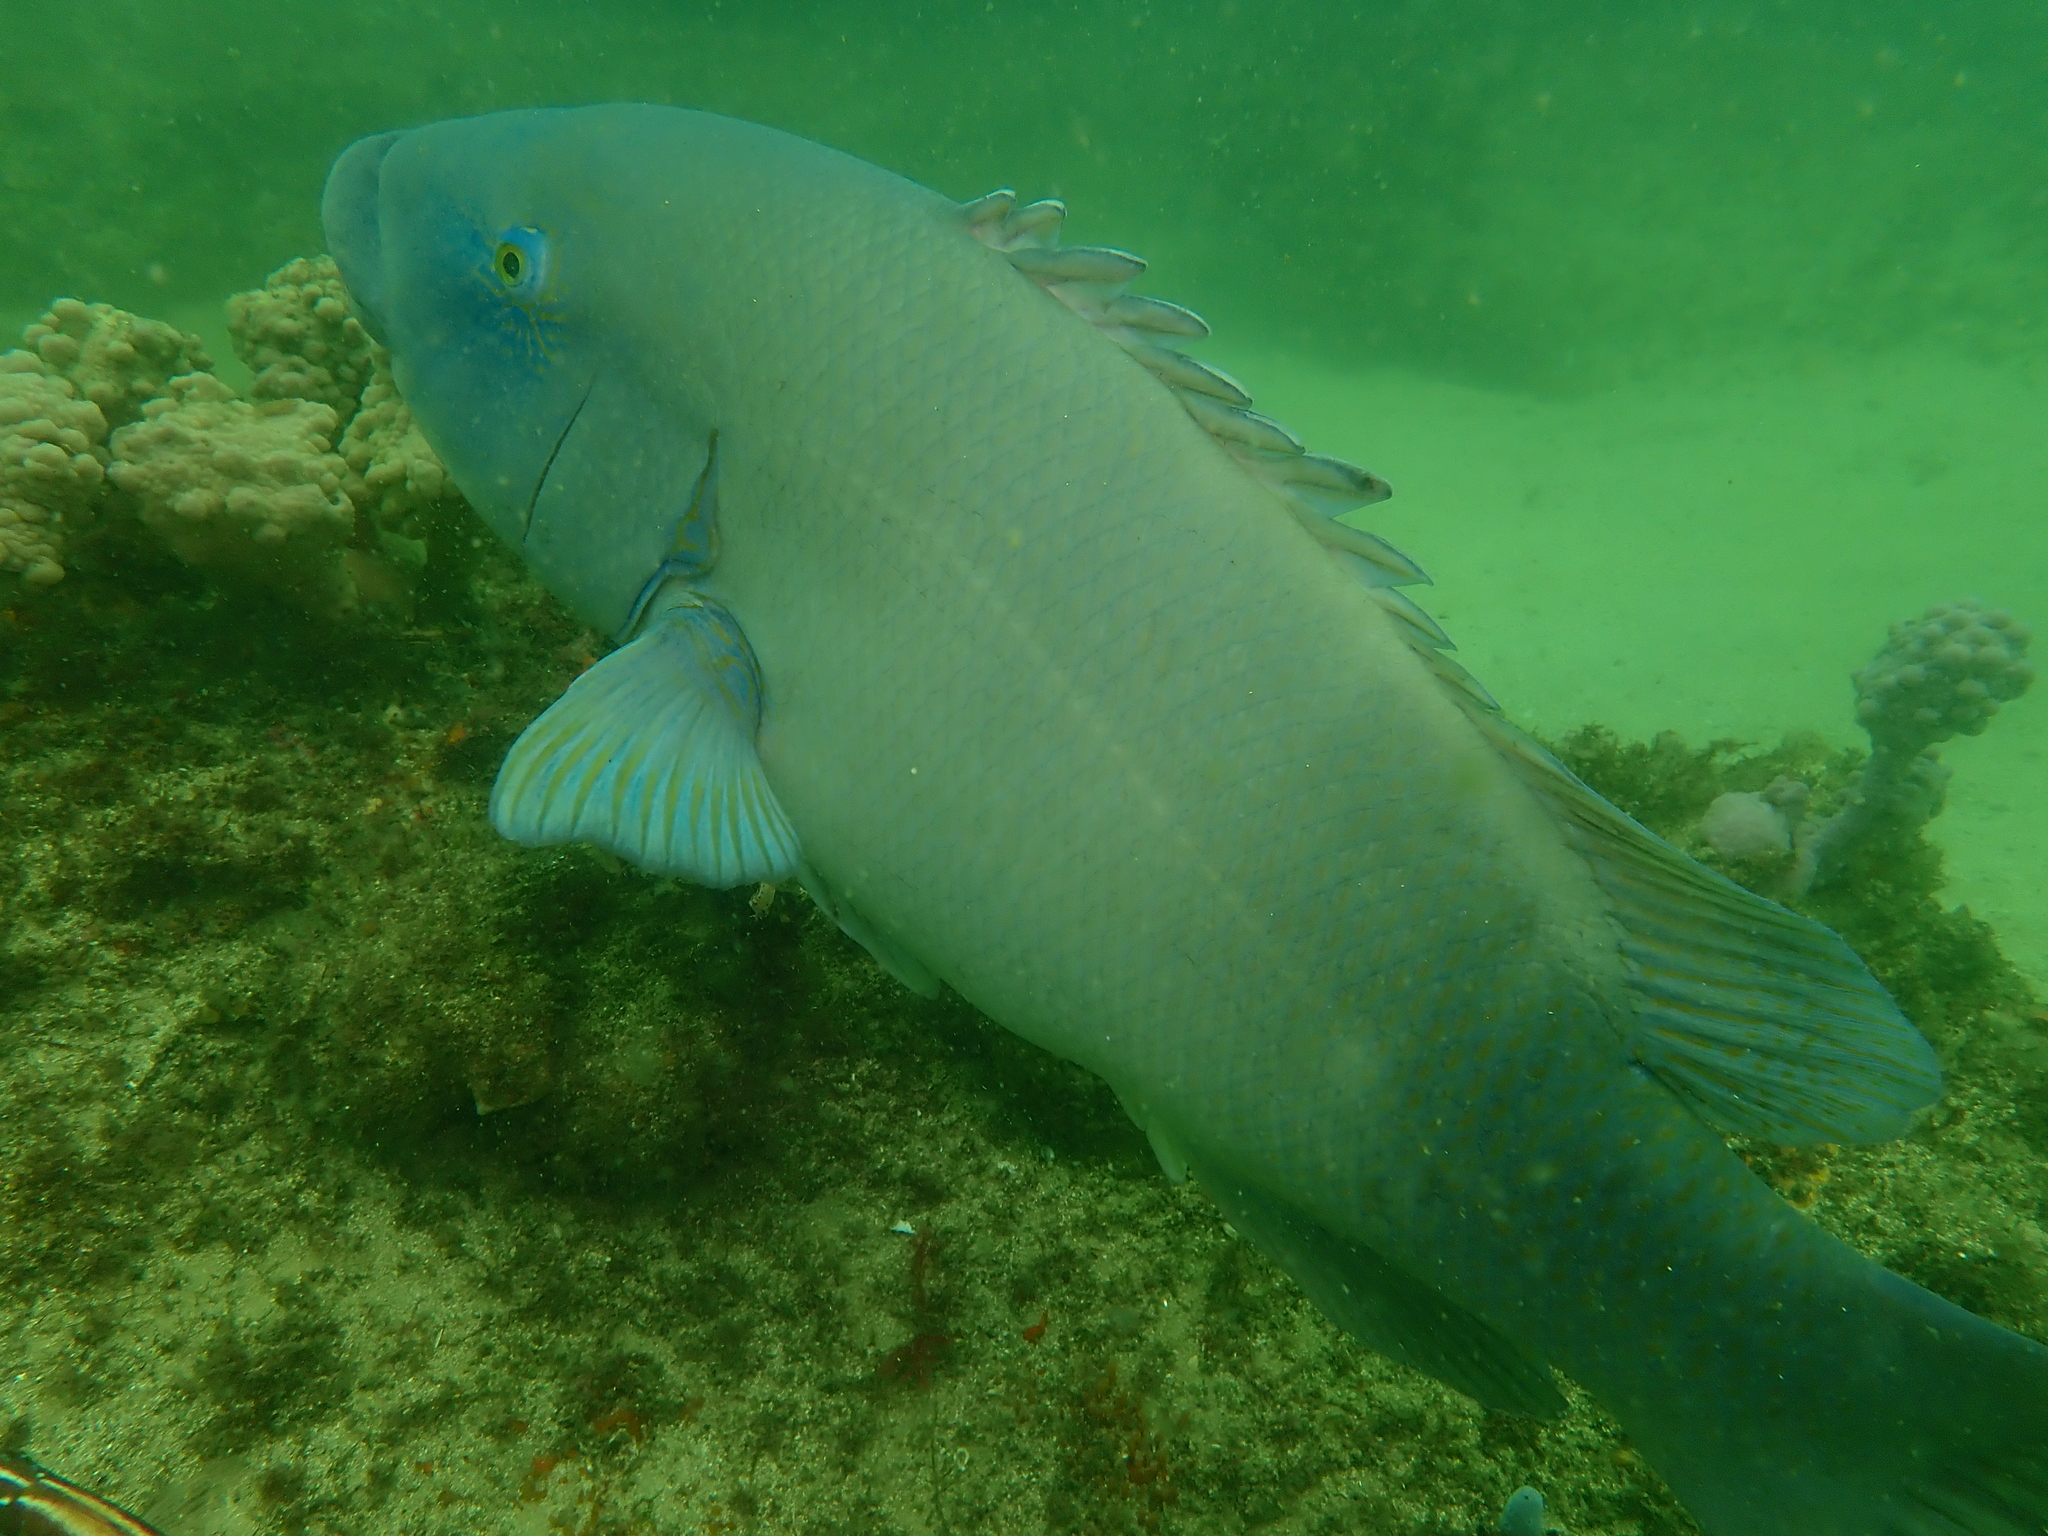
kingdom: Animalia
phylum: Chordata
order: Perciformes
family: Labridae
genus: Achoerodus
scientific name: Achoerodus viridis
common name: Brown groper
